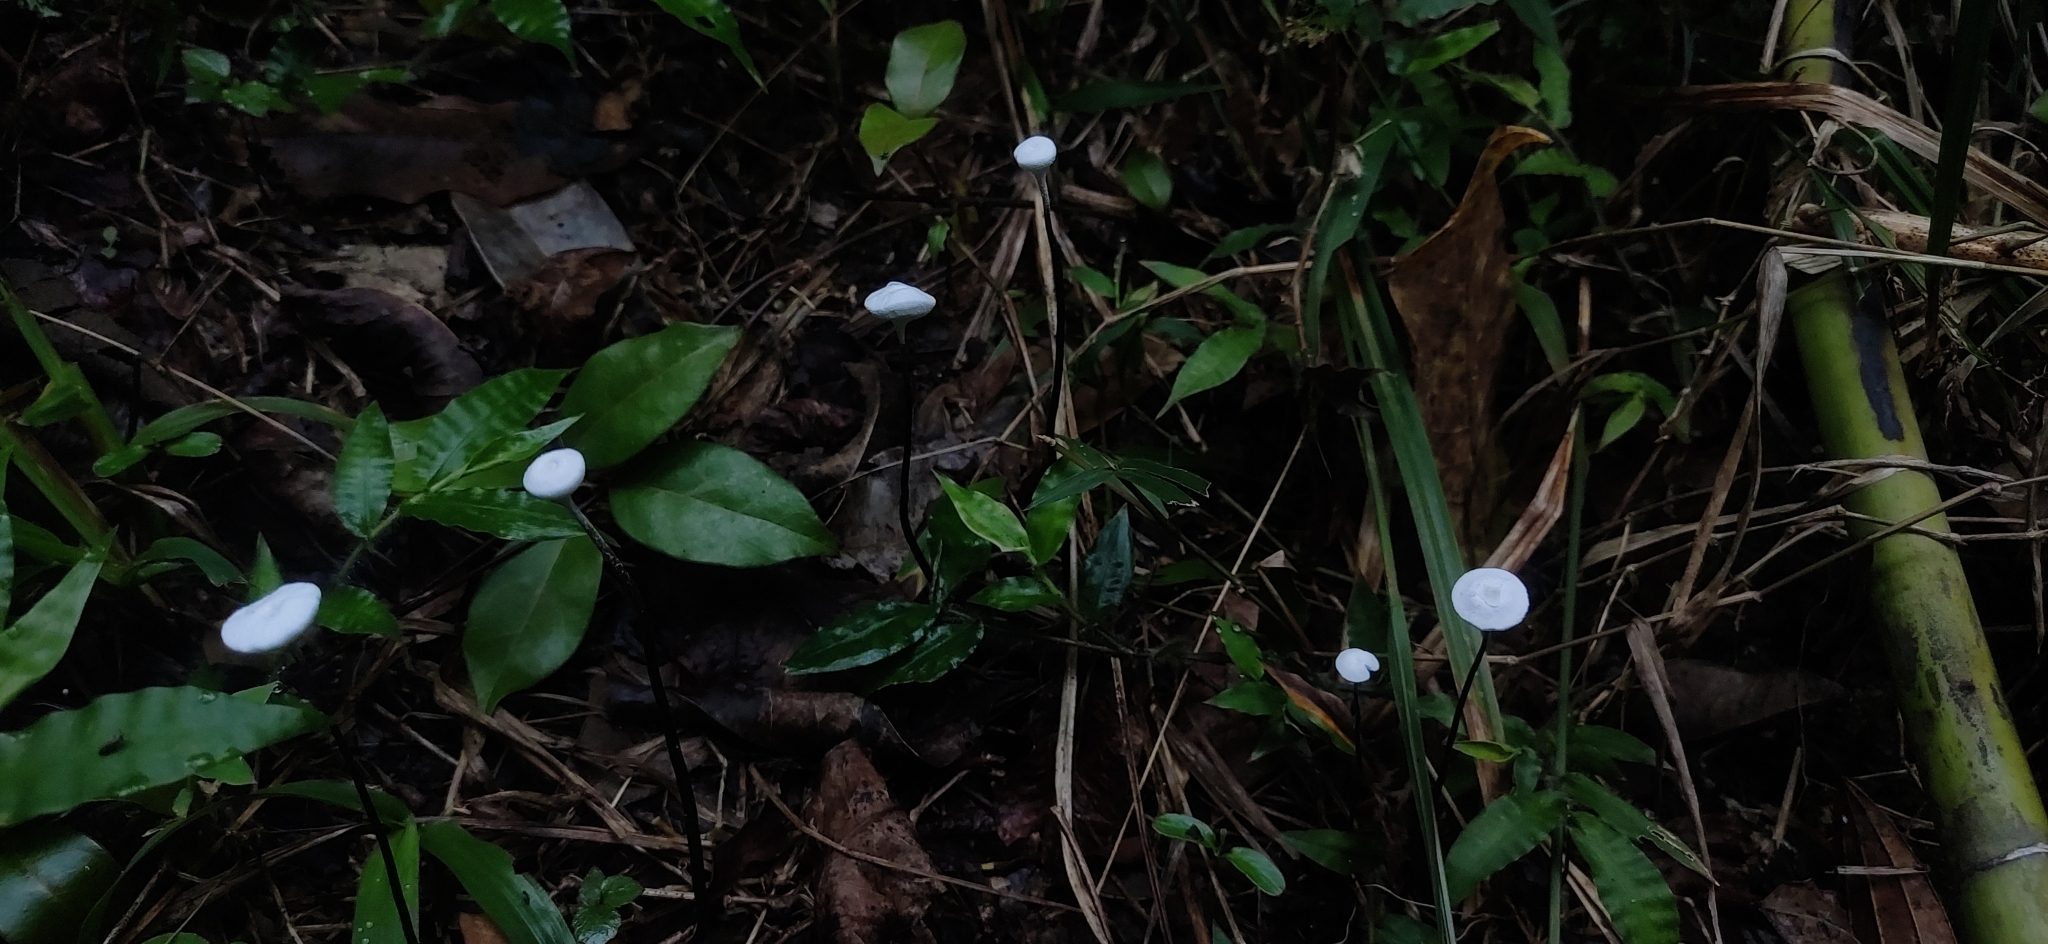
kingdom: Fungi
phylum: Ascomycota
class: Sordariomycetes
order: Xylariales
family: Xylariaceae
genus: Poronia
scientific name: Poronia
